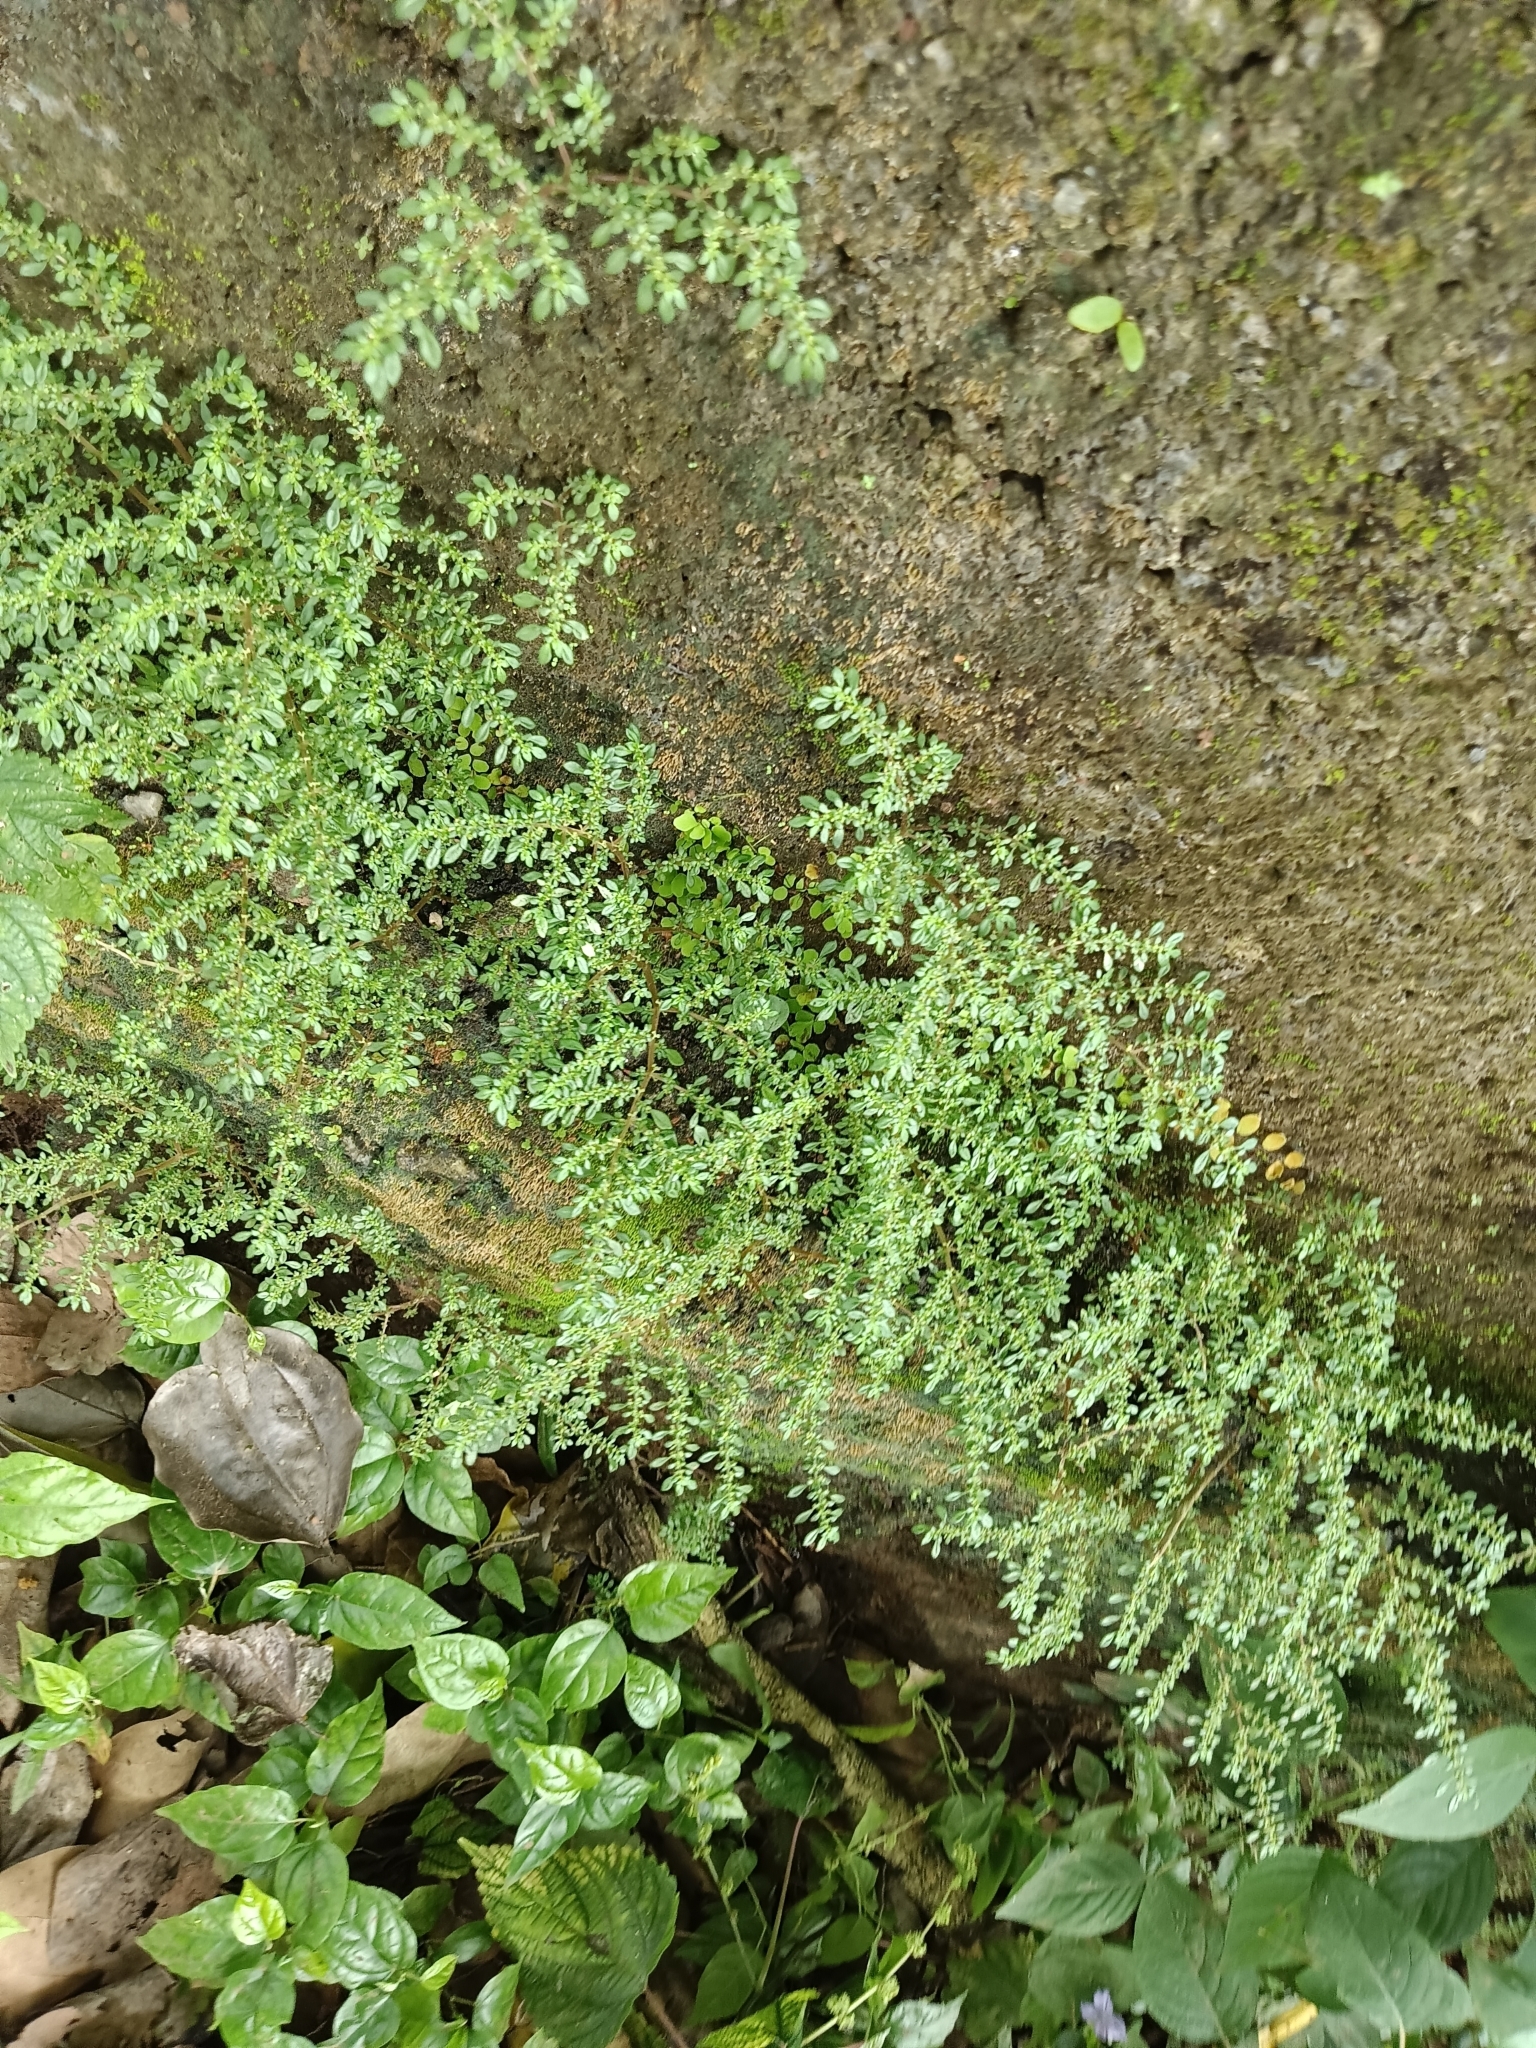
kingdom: Plantae
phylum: Tracheophyta
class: Magnoliopsida
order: Rosales
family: Urticaceae
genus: Pilea
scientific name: Pilea microphylla
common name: Artillery-plant
